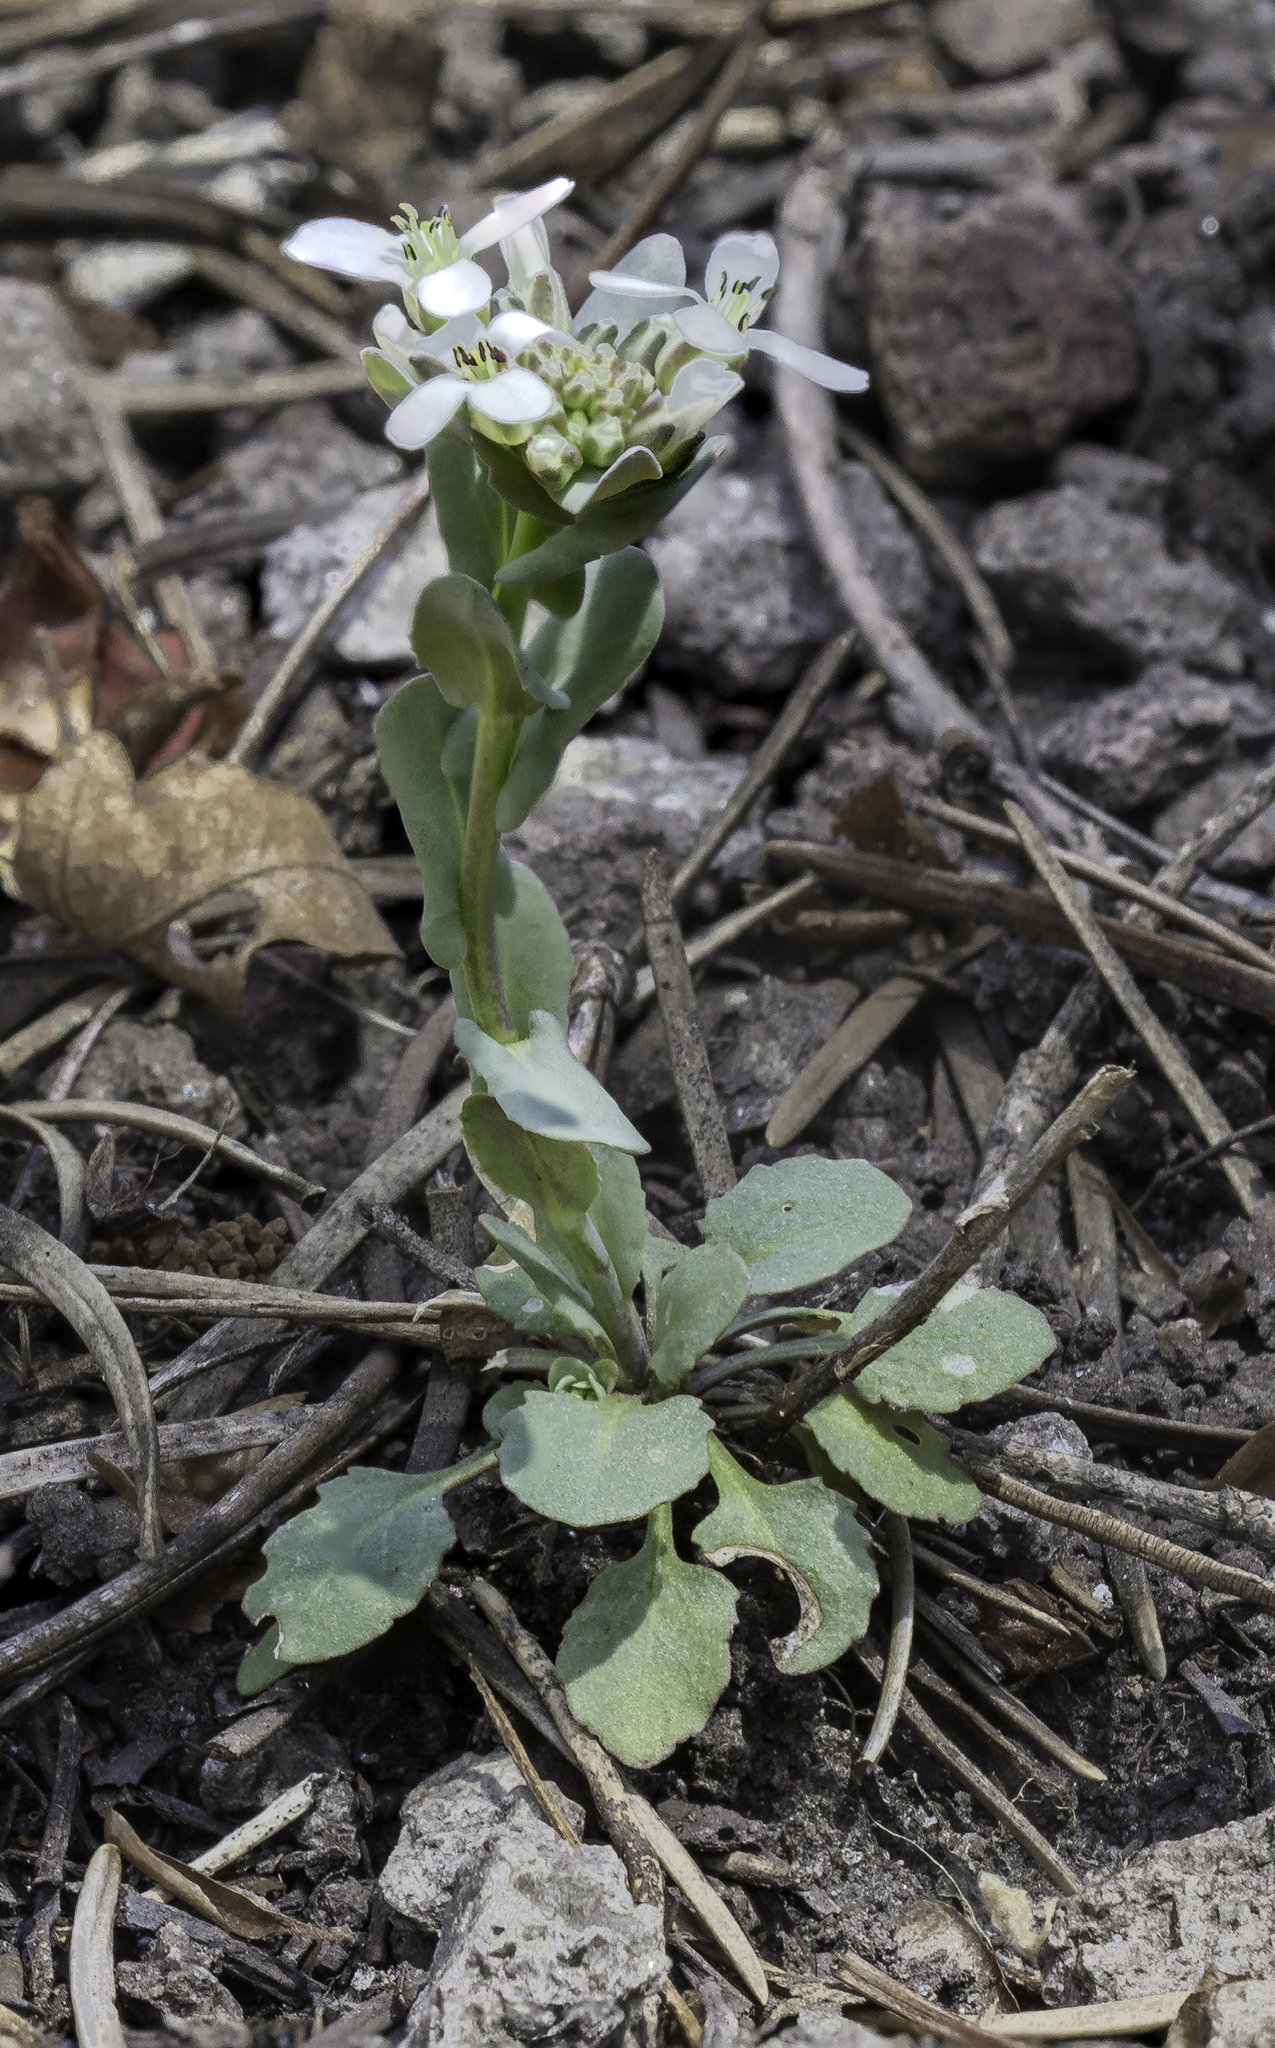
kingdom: Plantae
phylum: Tracheophyta
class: Magnoliopsida
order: Brassicales
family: Brassicaceae
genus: Noccaea
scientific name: Noccaea fendleri
